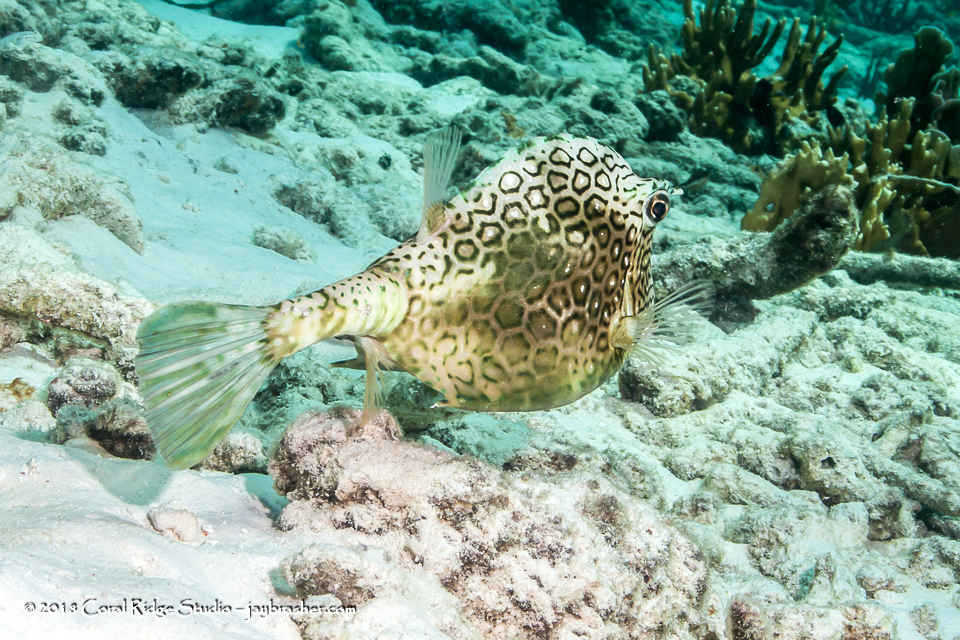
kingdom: Animalia
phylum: Chordata
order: Tetraodontiformes
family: Ostraciidae
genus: Acanthostracion
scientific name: Acanthostracion polygonius
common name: Honeycomb cowfish
